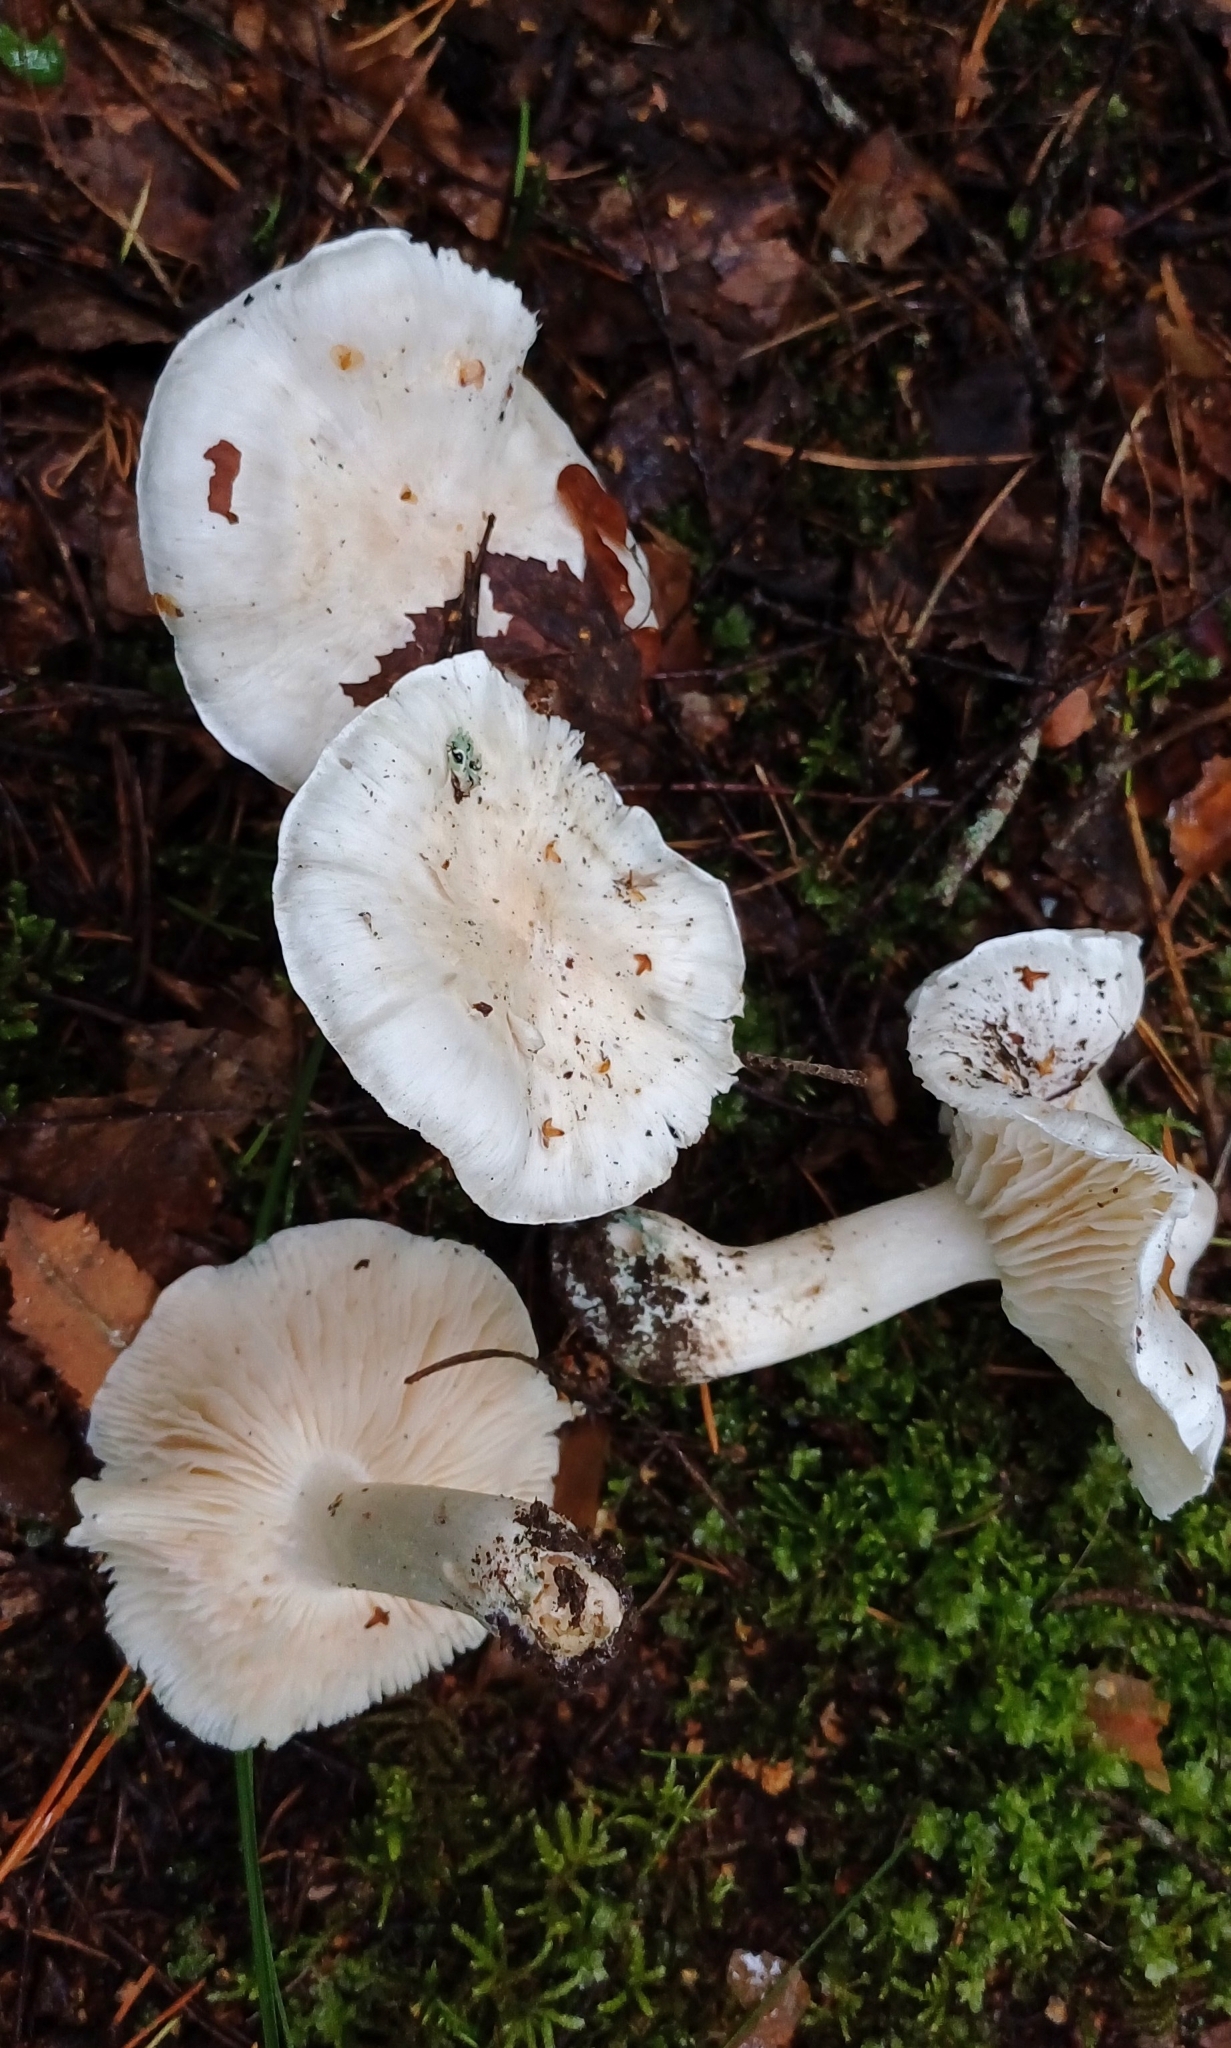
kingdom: Fungi
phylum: Basidiomycota
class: Agaricomycetes
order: Agaricales
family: Tricholomataceae
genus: Tricholoma
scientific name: Tricholoma columbetta
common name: Blue spot knight
